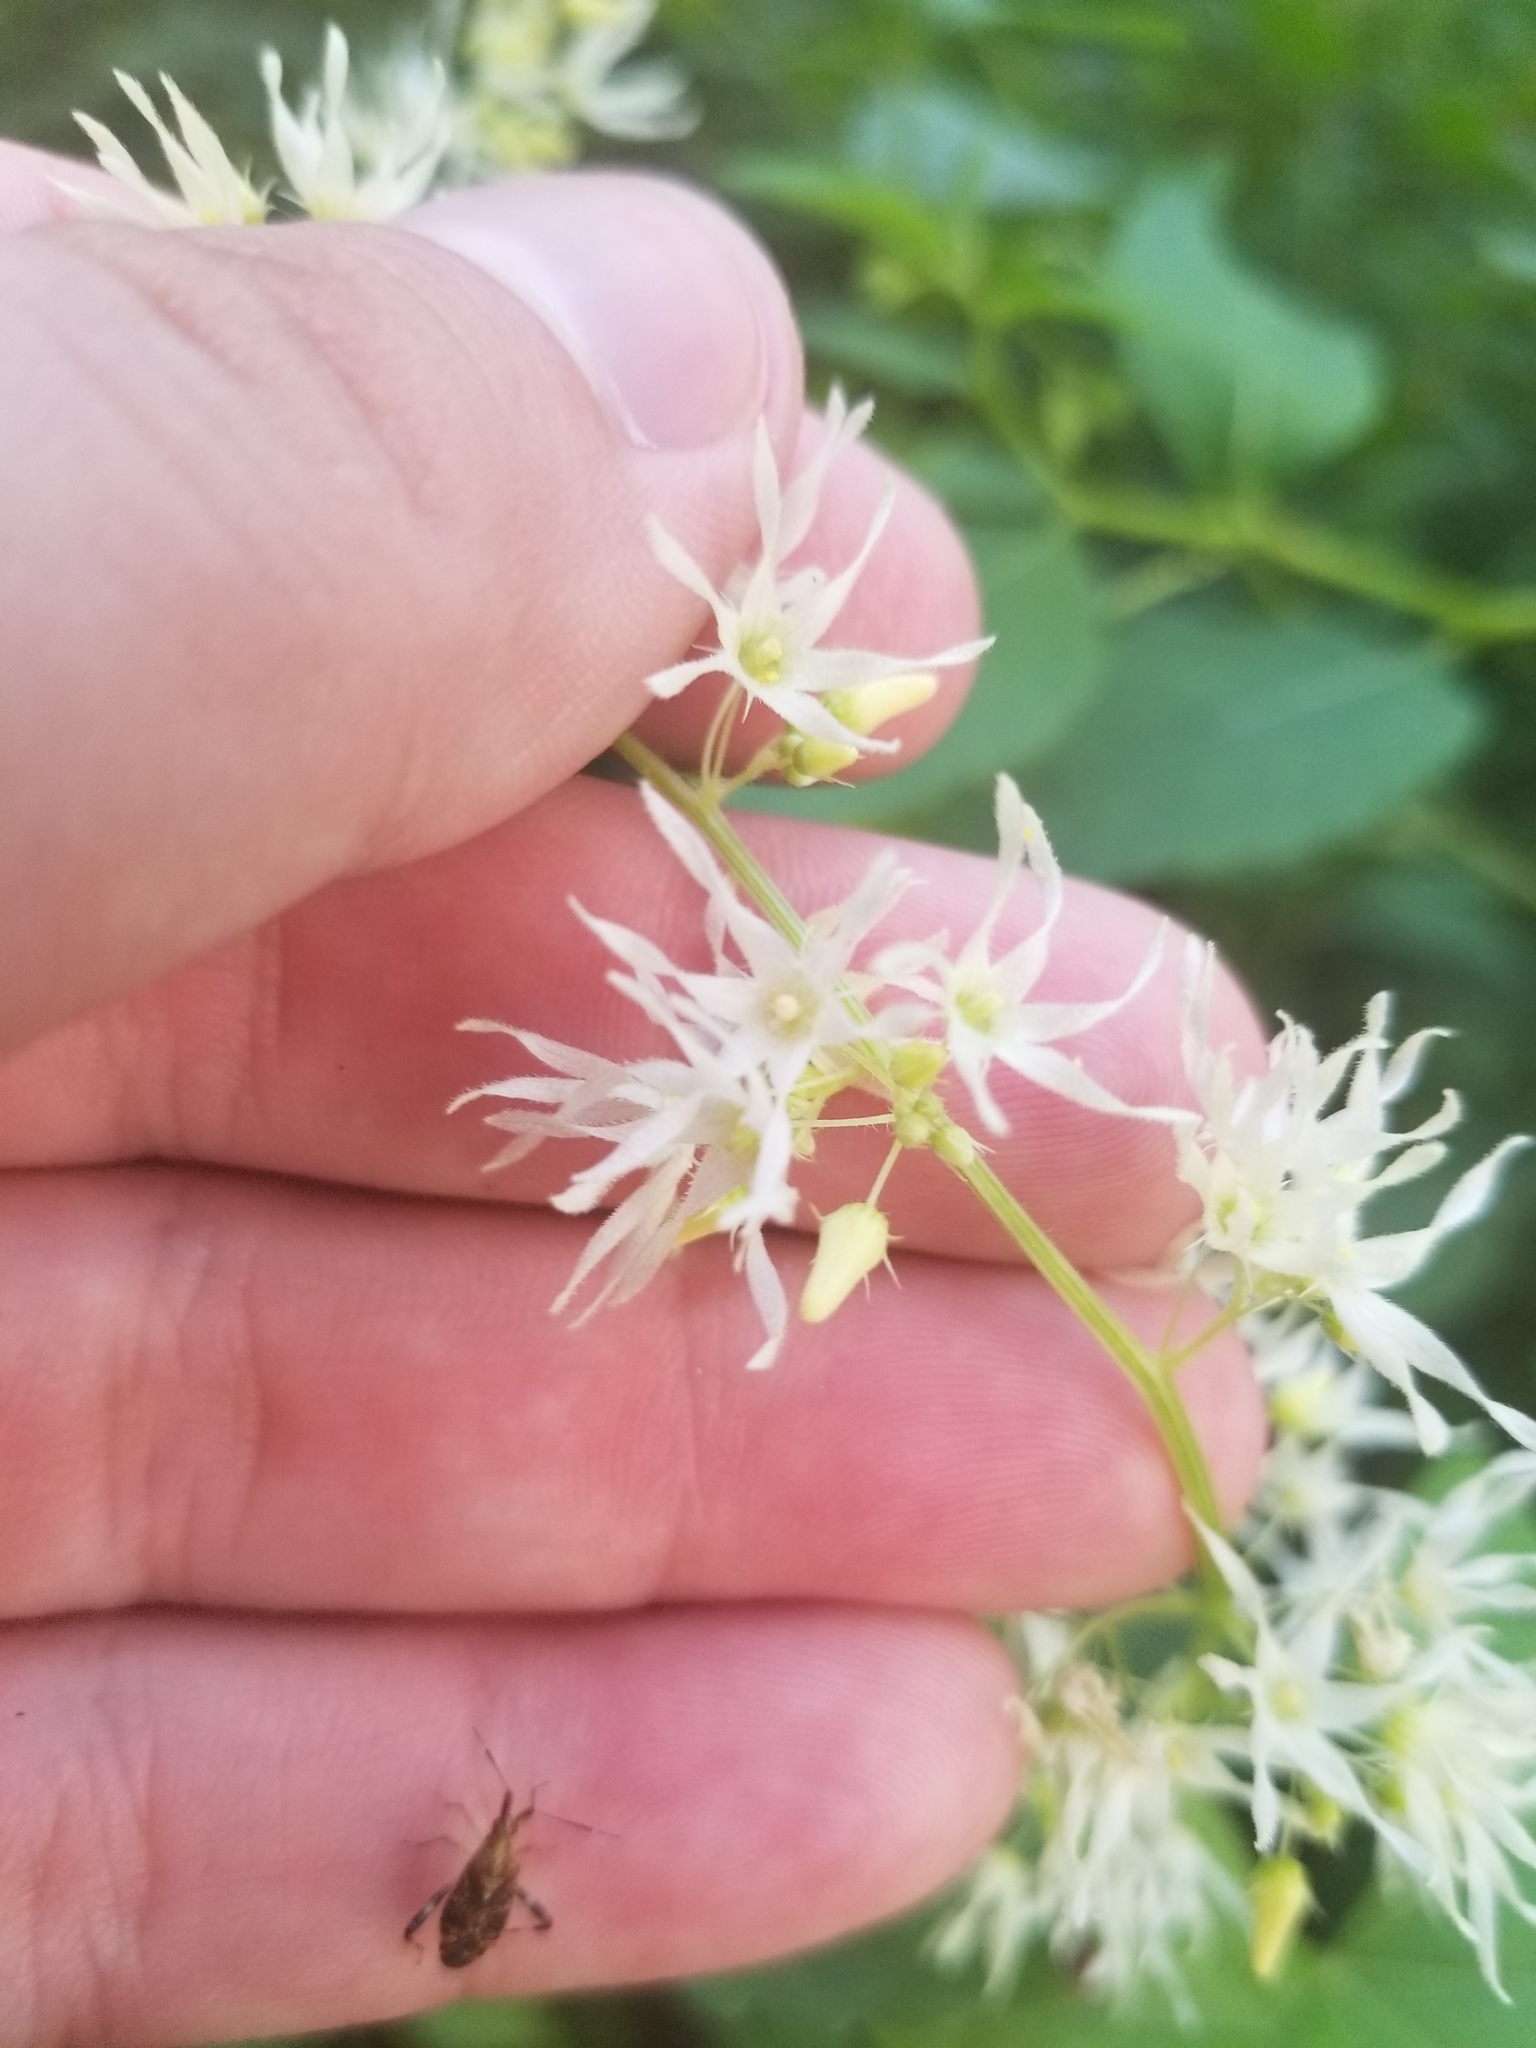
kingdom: Plantae
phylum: Tracheophyta
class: Magnoliopsida
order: Cucurbitales
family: Cucurbitaceae
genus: Echinocystis
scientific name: Echinocystis lobata
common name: Wild cucumber
